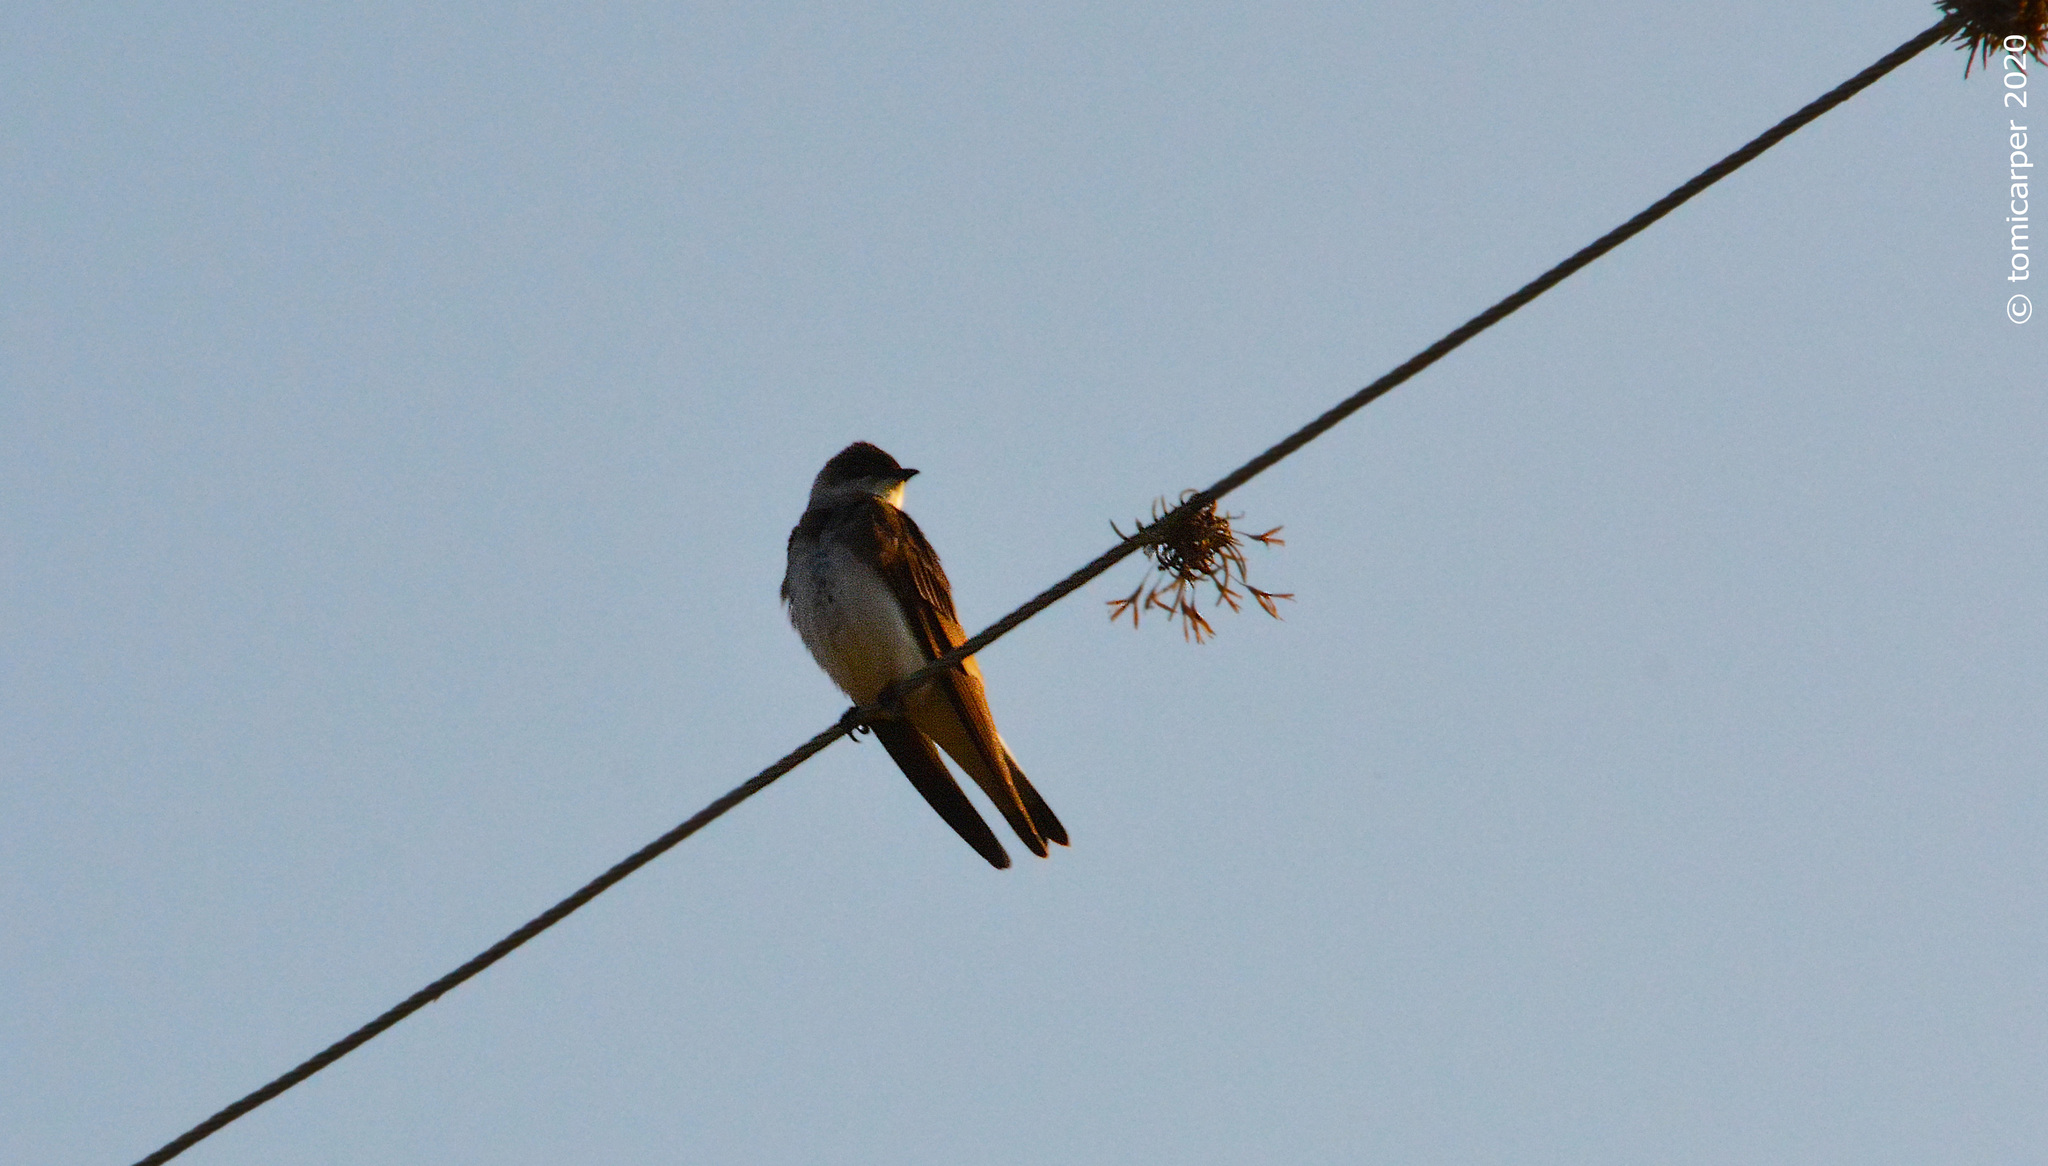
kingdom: Animalia
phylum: Chordata
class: Aves
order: Passeriformes
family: Hirundinidae
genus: Progne
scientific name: Progne tapera
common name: Brown-chested martin
